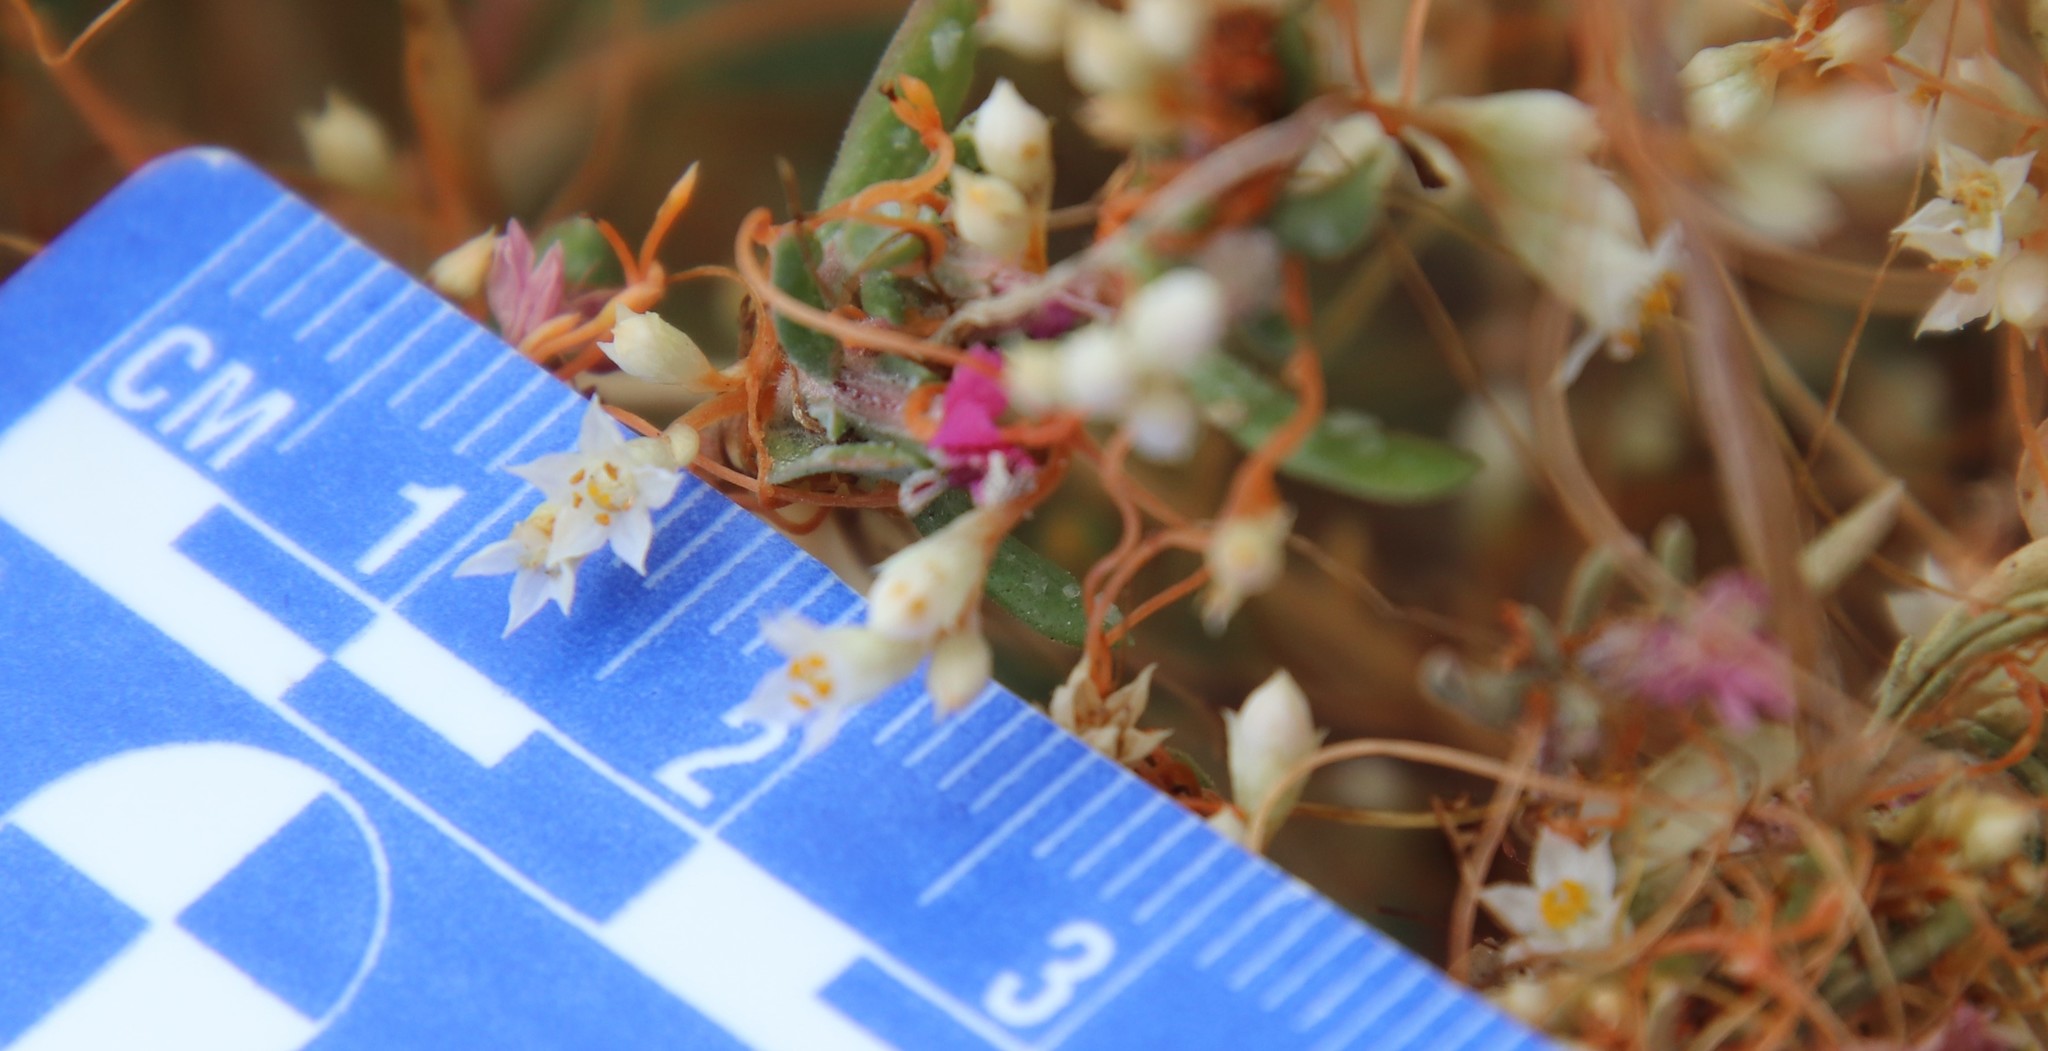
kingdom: Plantae
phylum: Tracheophyta
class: Magnoliopsida
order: Solanales
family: Convolvulaceae
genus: Cuscuta
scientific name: Cuscuta pacifica
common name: Large saltmarsh dodder
